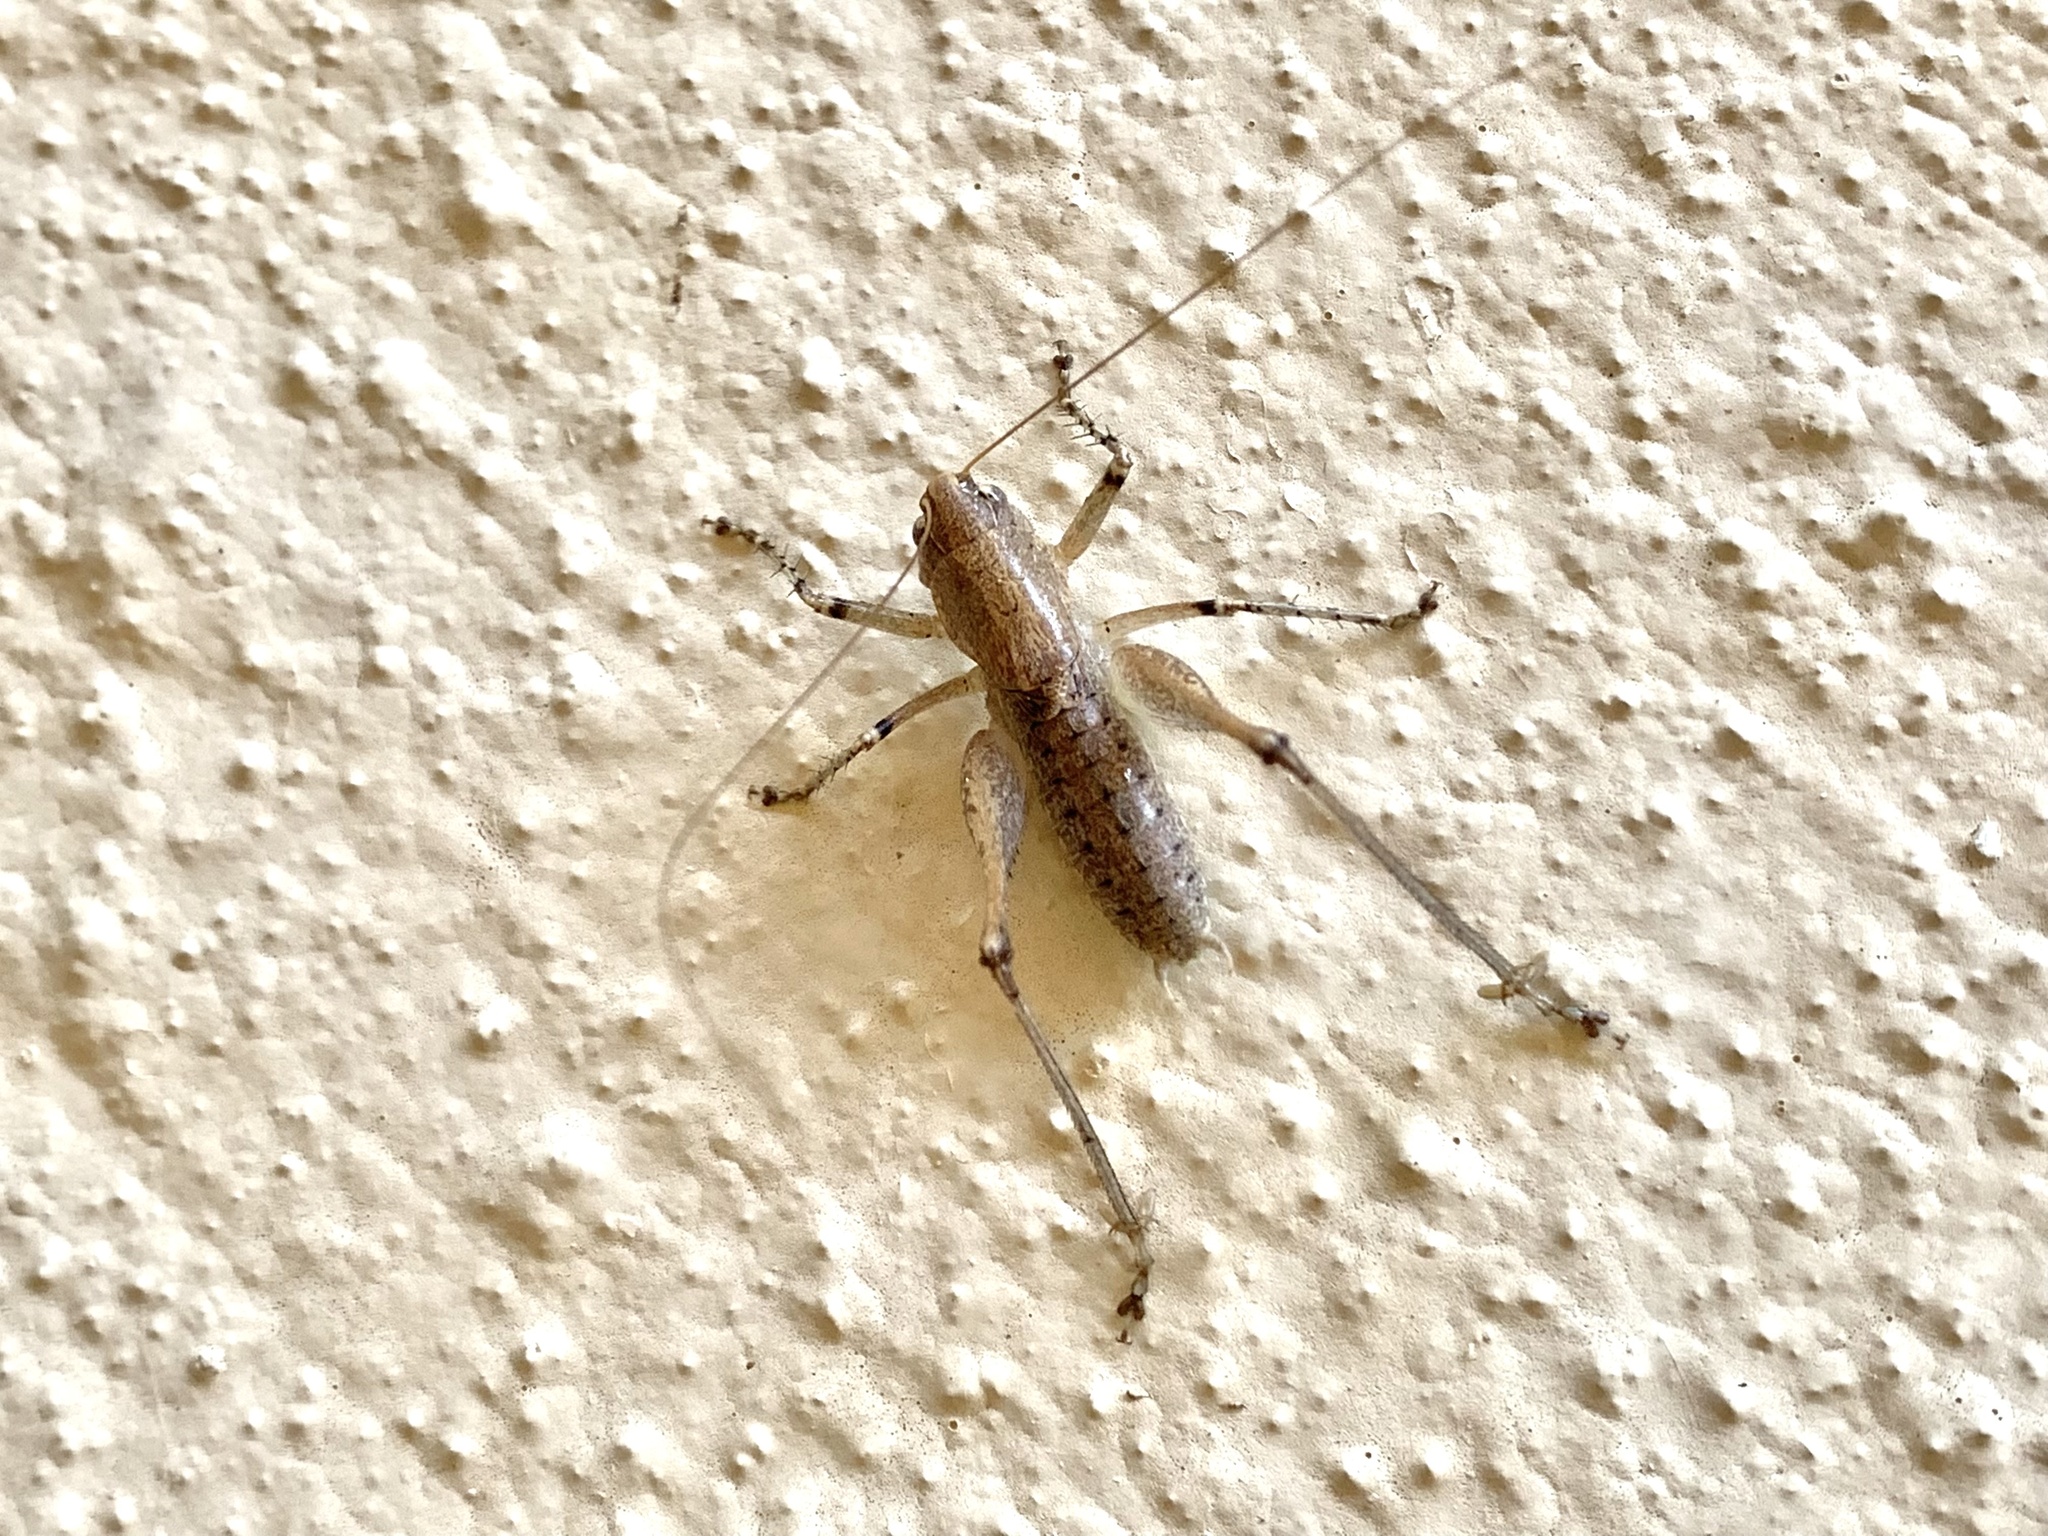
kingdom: Animalia
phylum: Arthropoda
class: Insecta
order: Orthoptera
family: Tettigoniidae
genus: Rhacocleis
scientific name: Rhacocleis germanica
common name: Mediterranean bush-cricket
